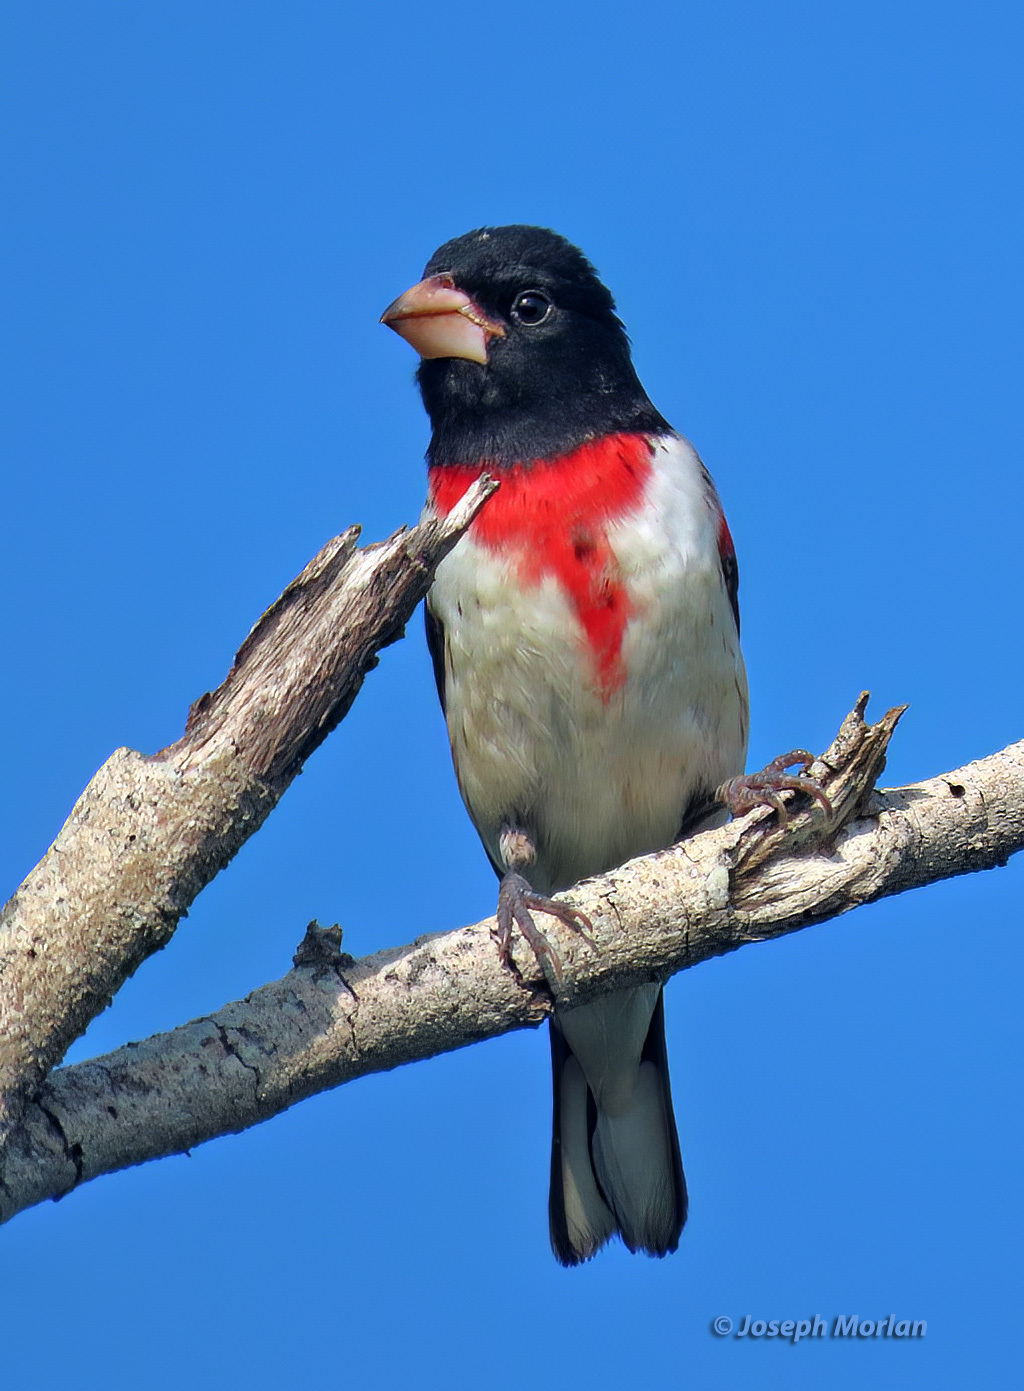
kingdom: Animalia
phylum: Chordata
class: Aves
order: Passeriformes
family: Cardinalidae
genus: Pheucticus
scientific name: Pheucticus ludovicianus
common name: Rose-breasted grosbeak
